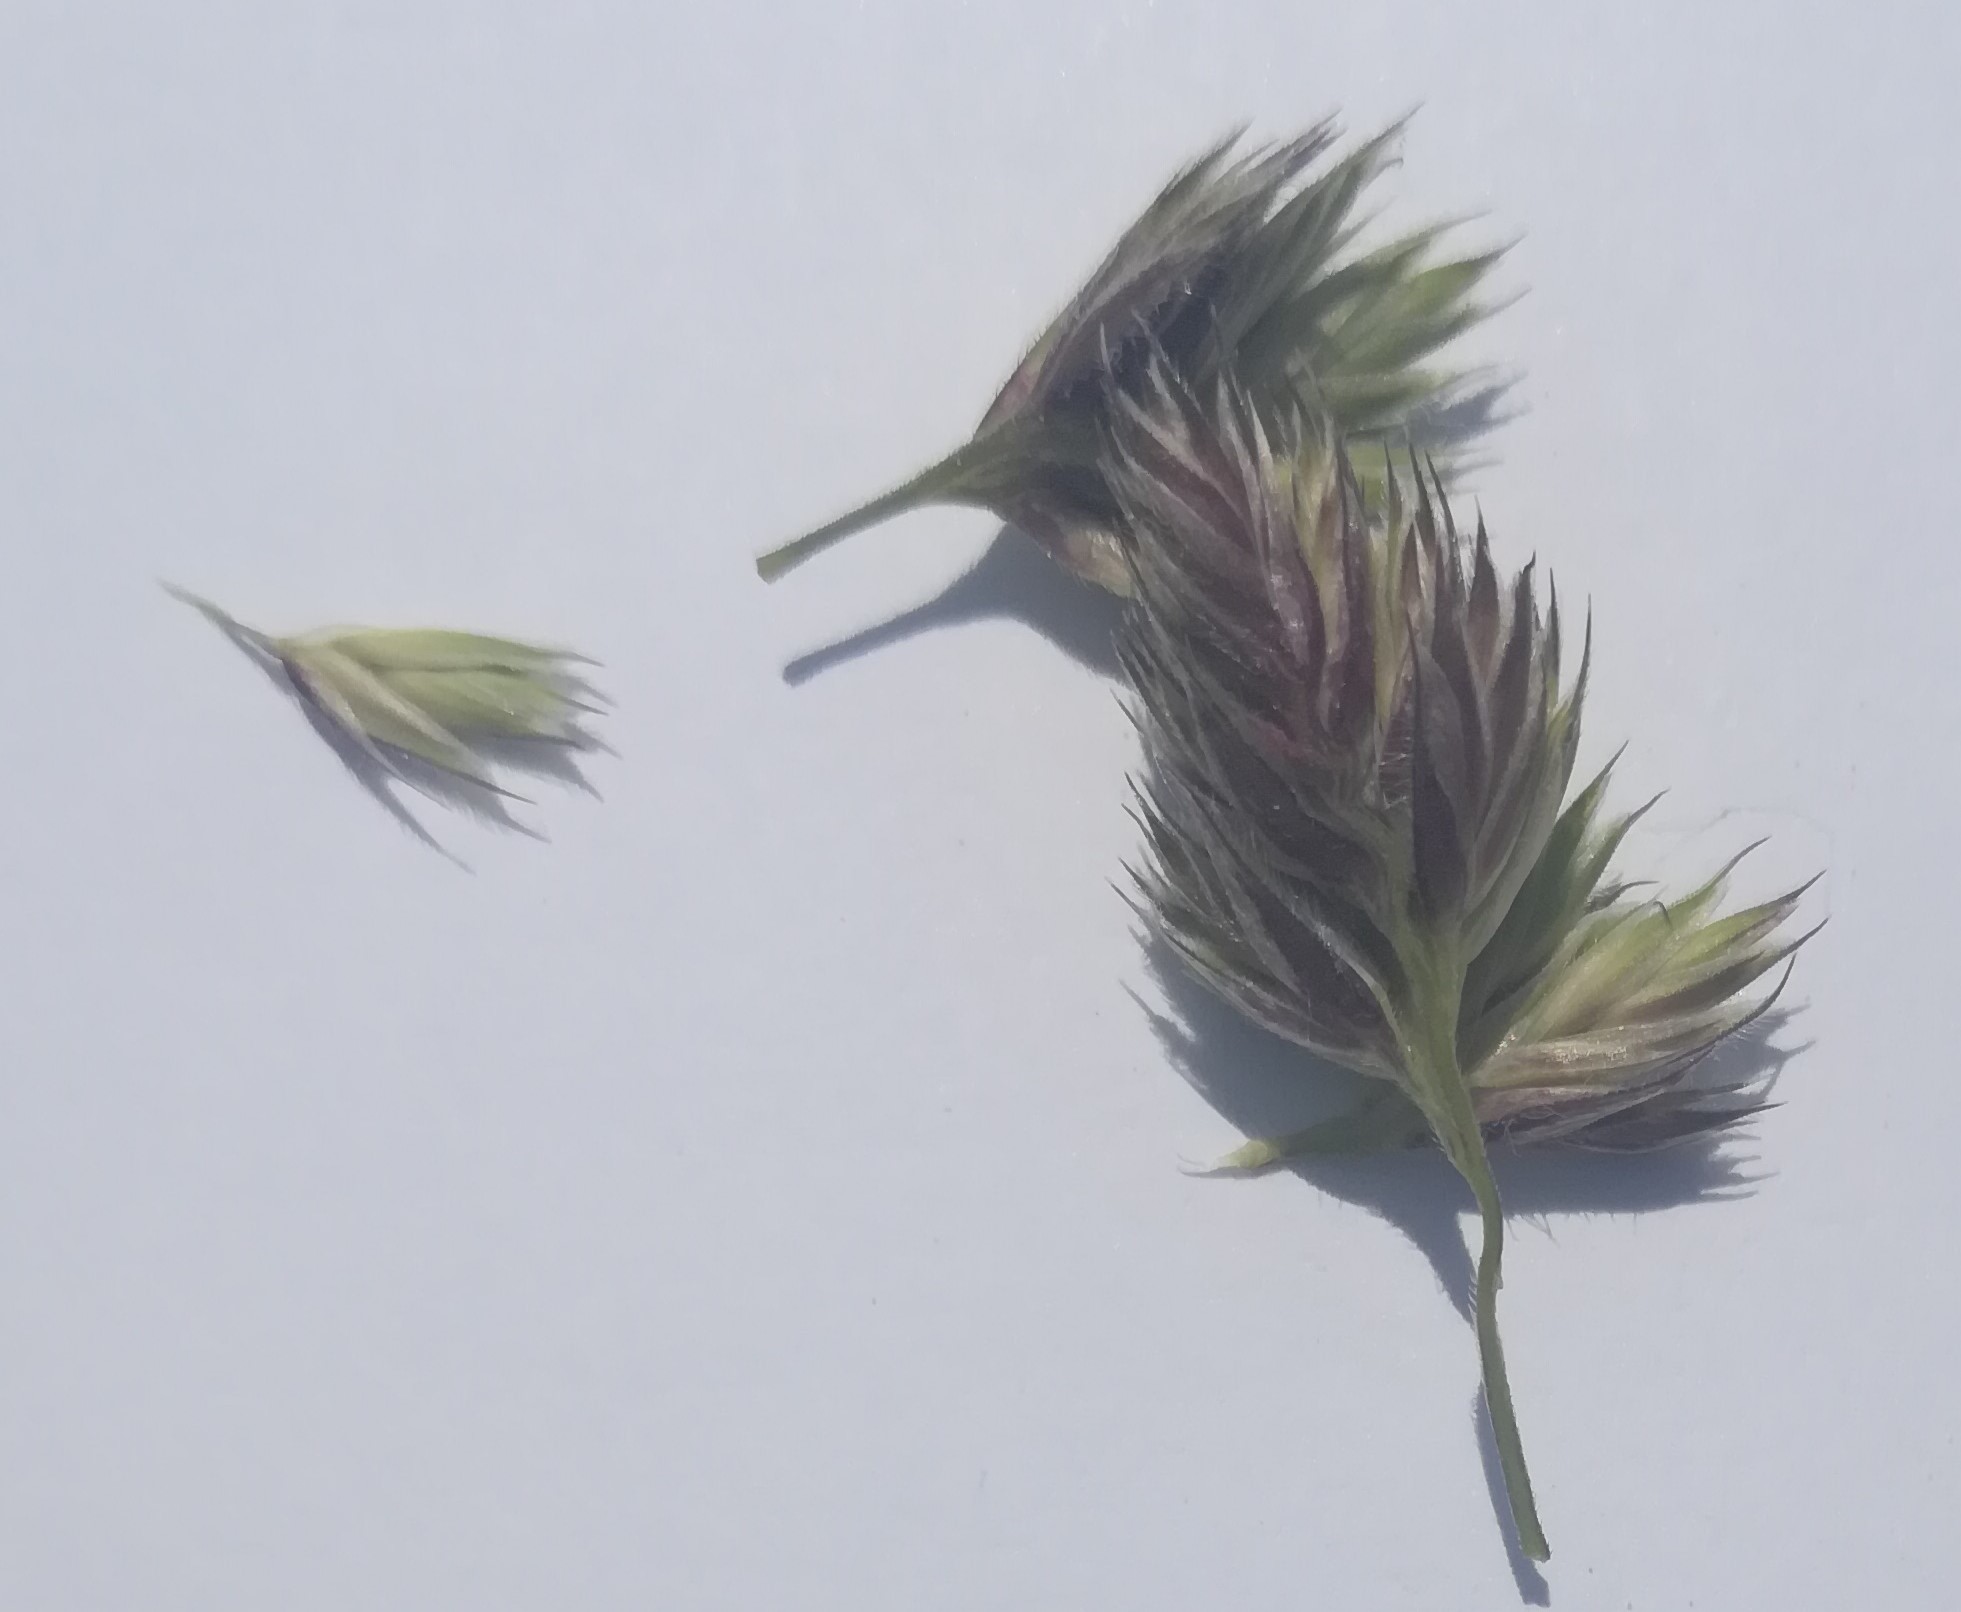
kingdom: Plantae
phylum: Tracheophyta
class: Liliopsida
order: Poales
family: Poaceae
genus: Dactylis
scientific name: Dactylis glomerata
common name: Orchardgrass
